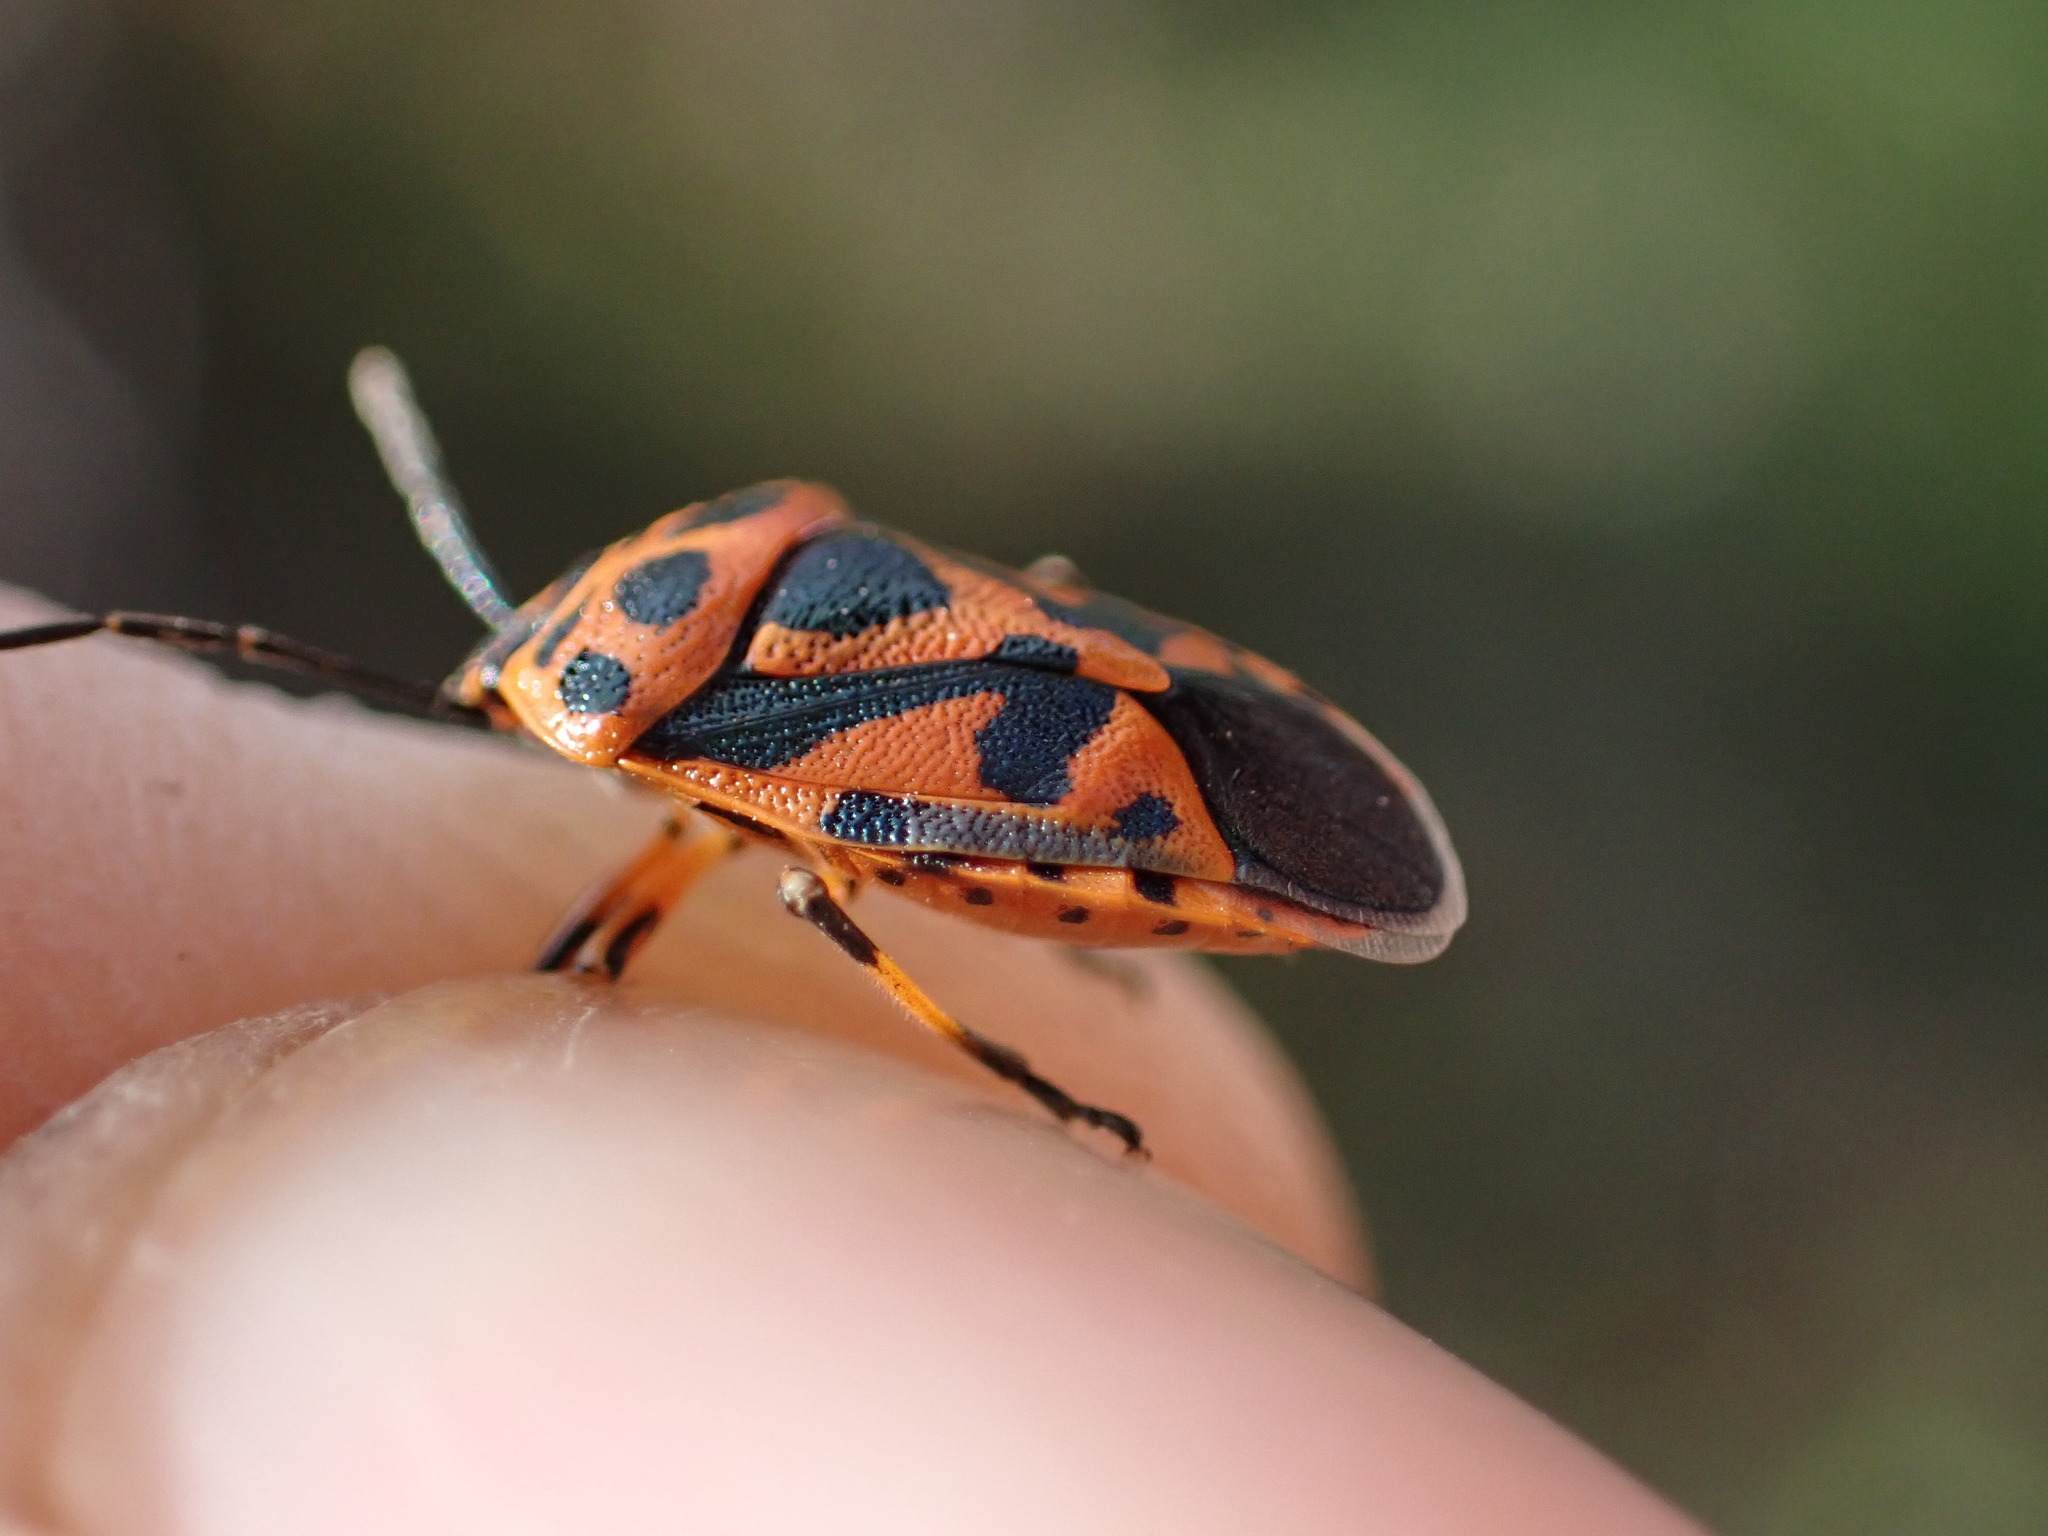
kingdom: Animalia
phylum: Arthropoda
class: Insecta
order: Hemiptera
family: Pentatomidae
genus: Eurydema
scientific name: Eurydema ornata
